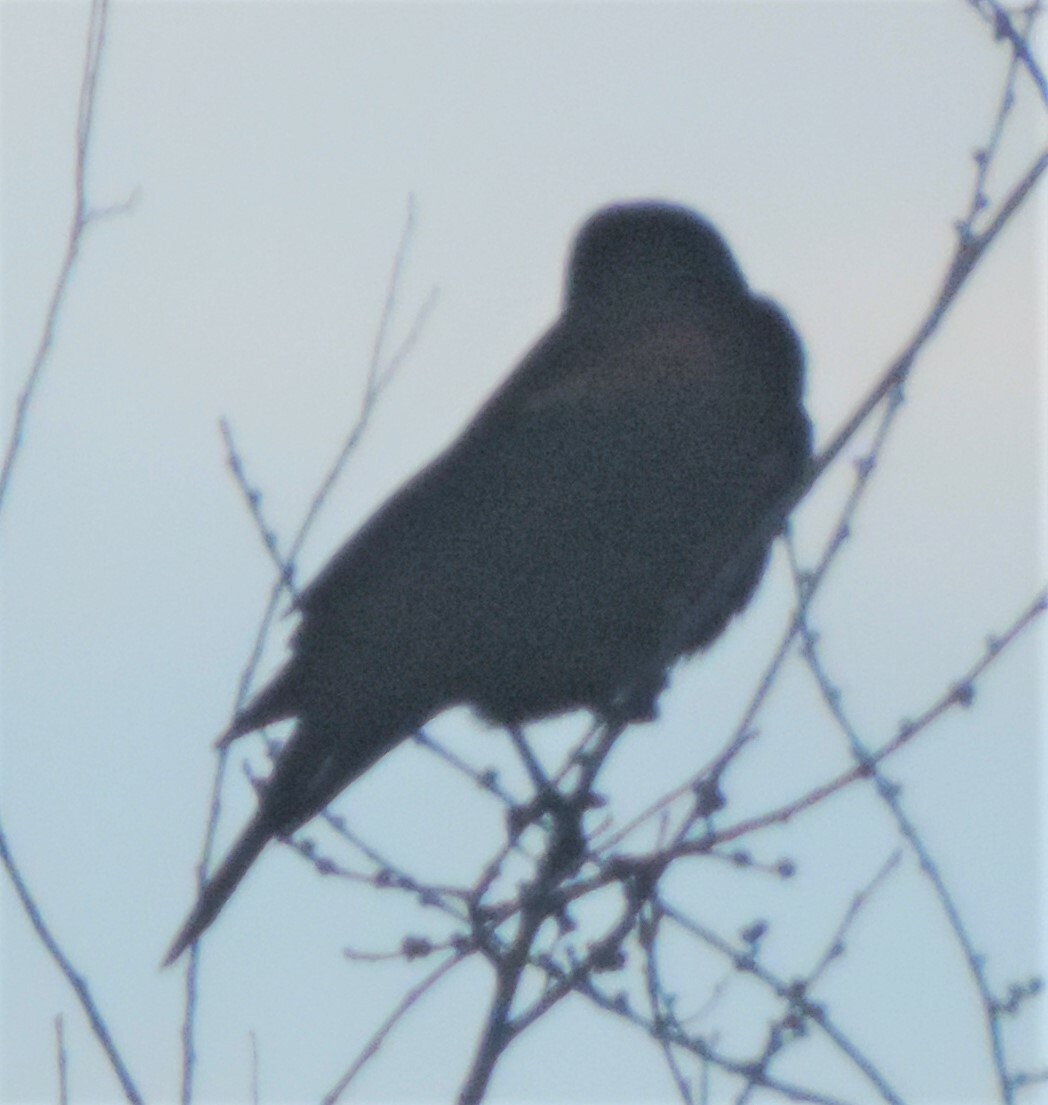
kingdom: Animalia
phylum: Chordata
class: Aves
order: Passeriformes
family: Icteridae
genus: Agelaius
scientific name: Agelaius phoeniceus
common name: Red-winged blackbird
